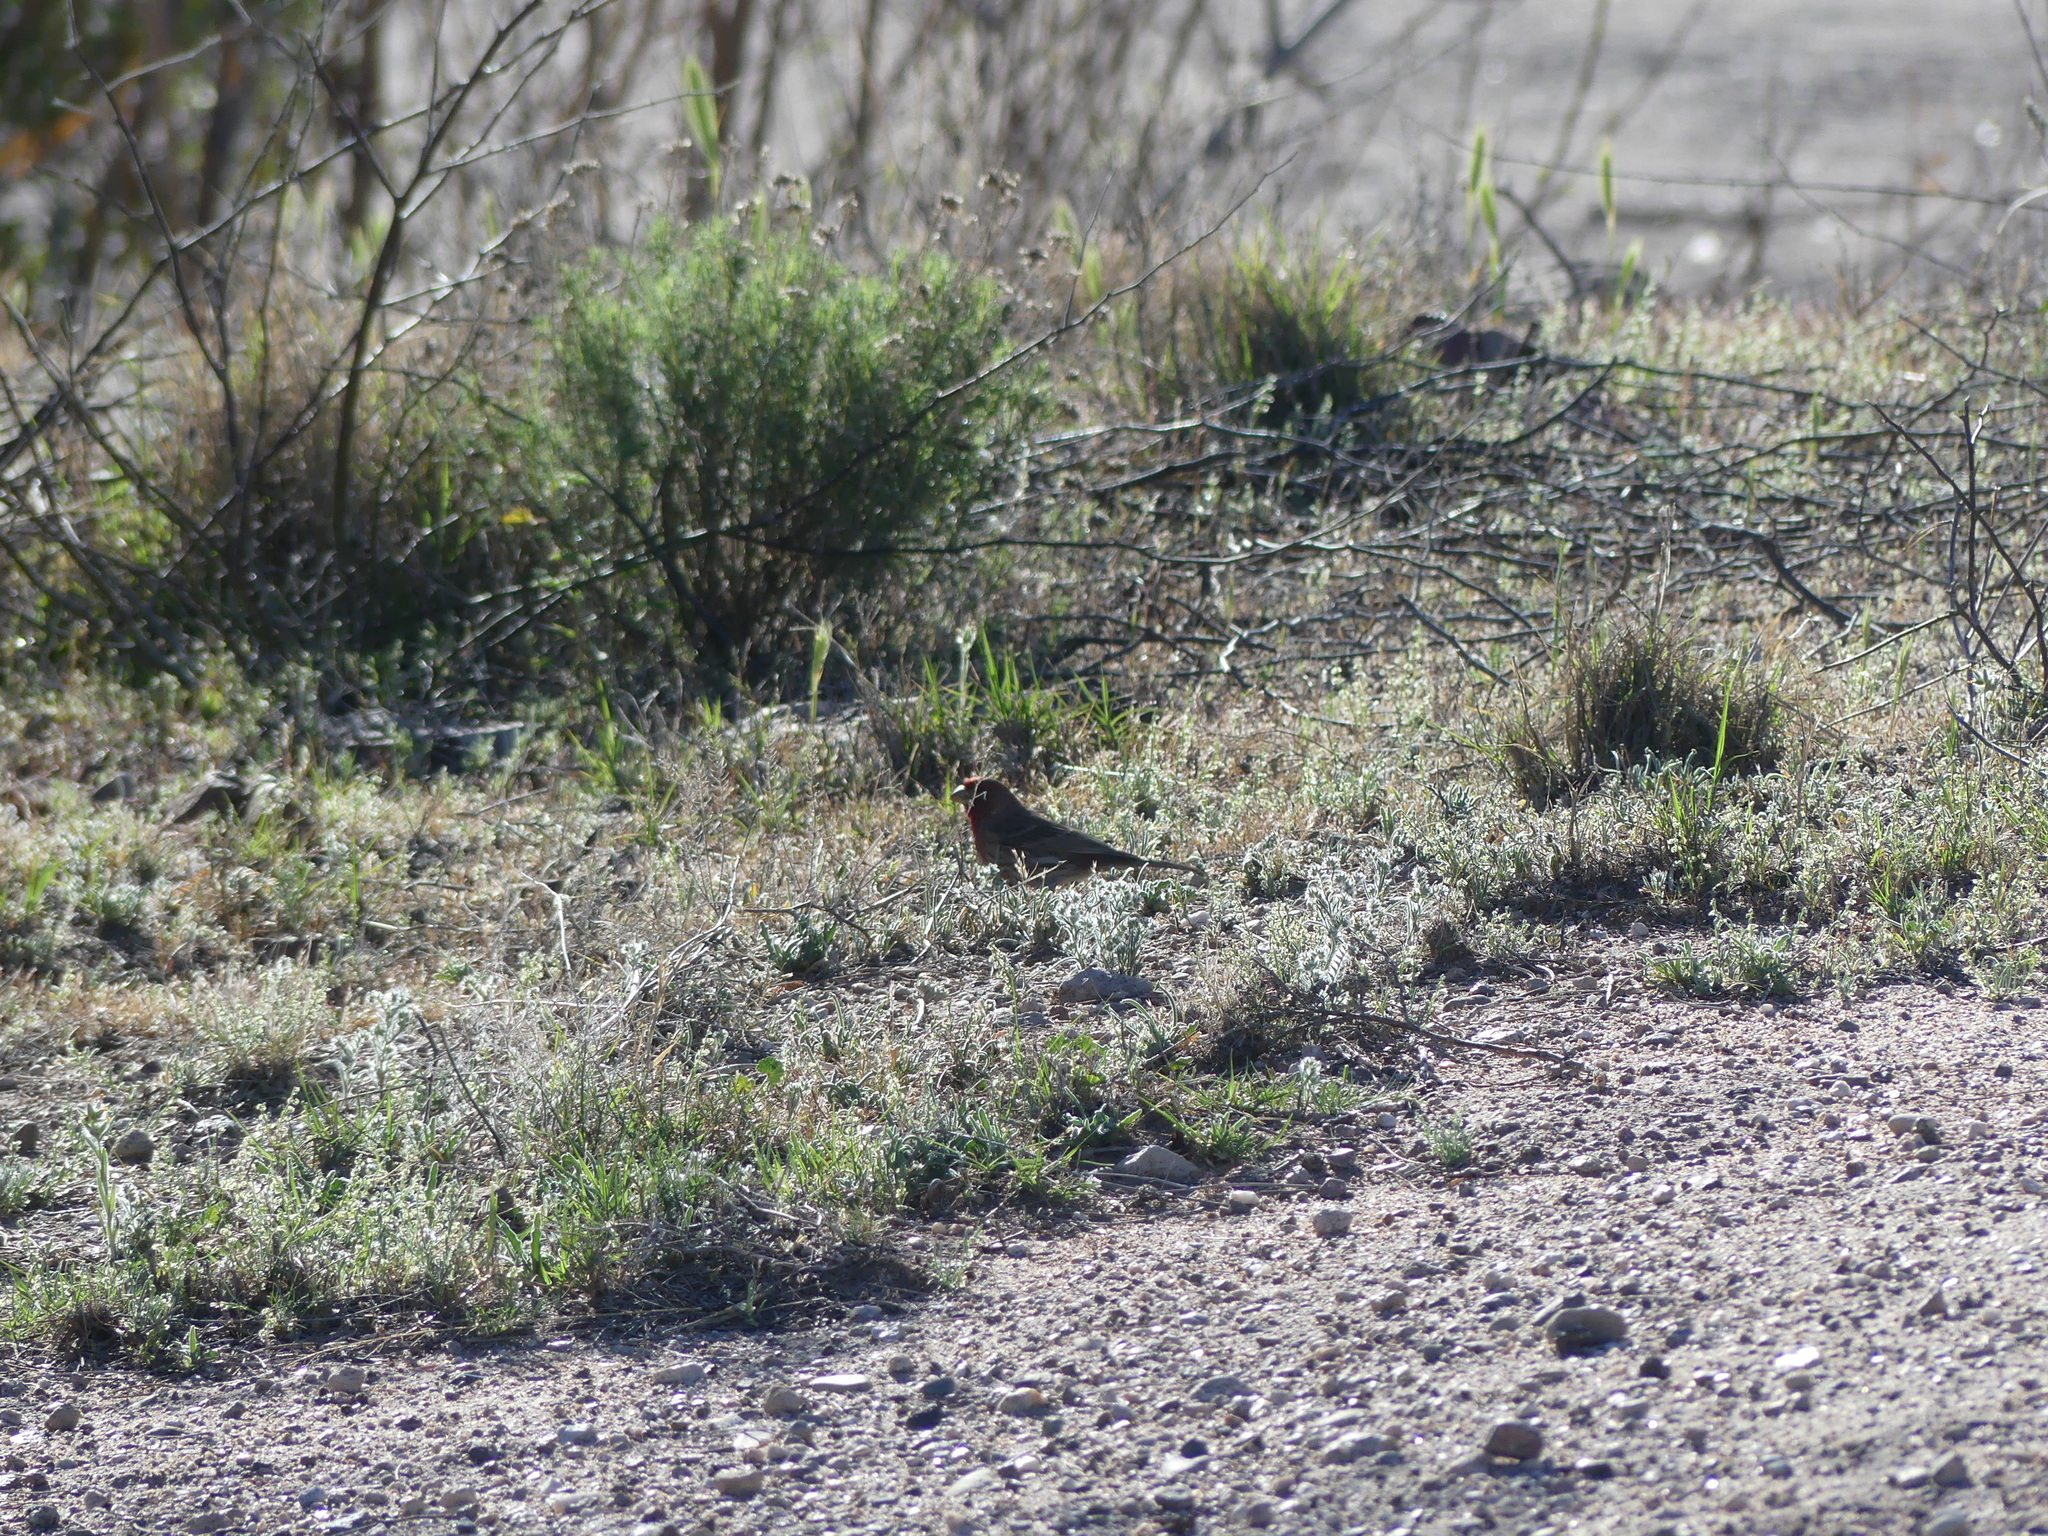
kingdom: Animalia
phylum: Chordata
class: Aves
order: Passeriformes
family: Fringillidae
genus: Haemorhous
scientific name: Haemorhous mexicanus
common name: House finch
